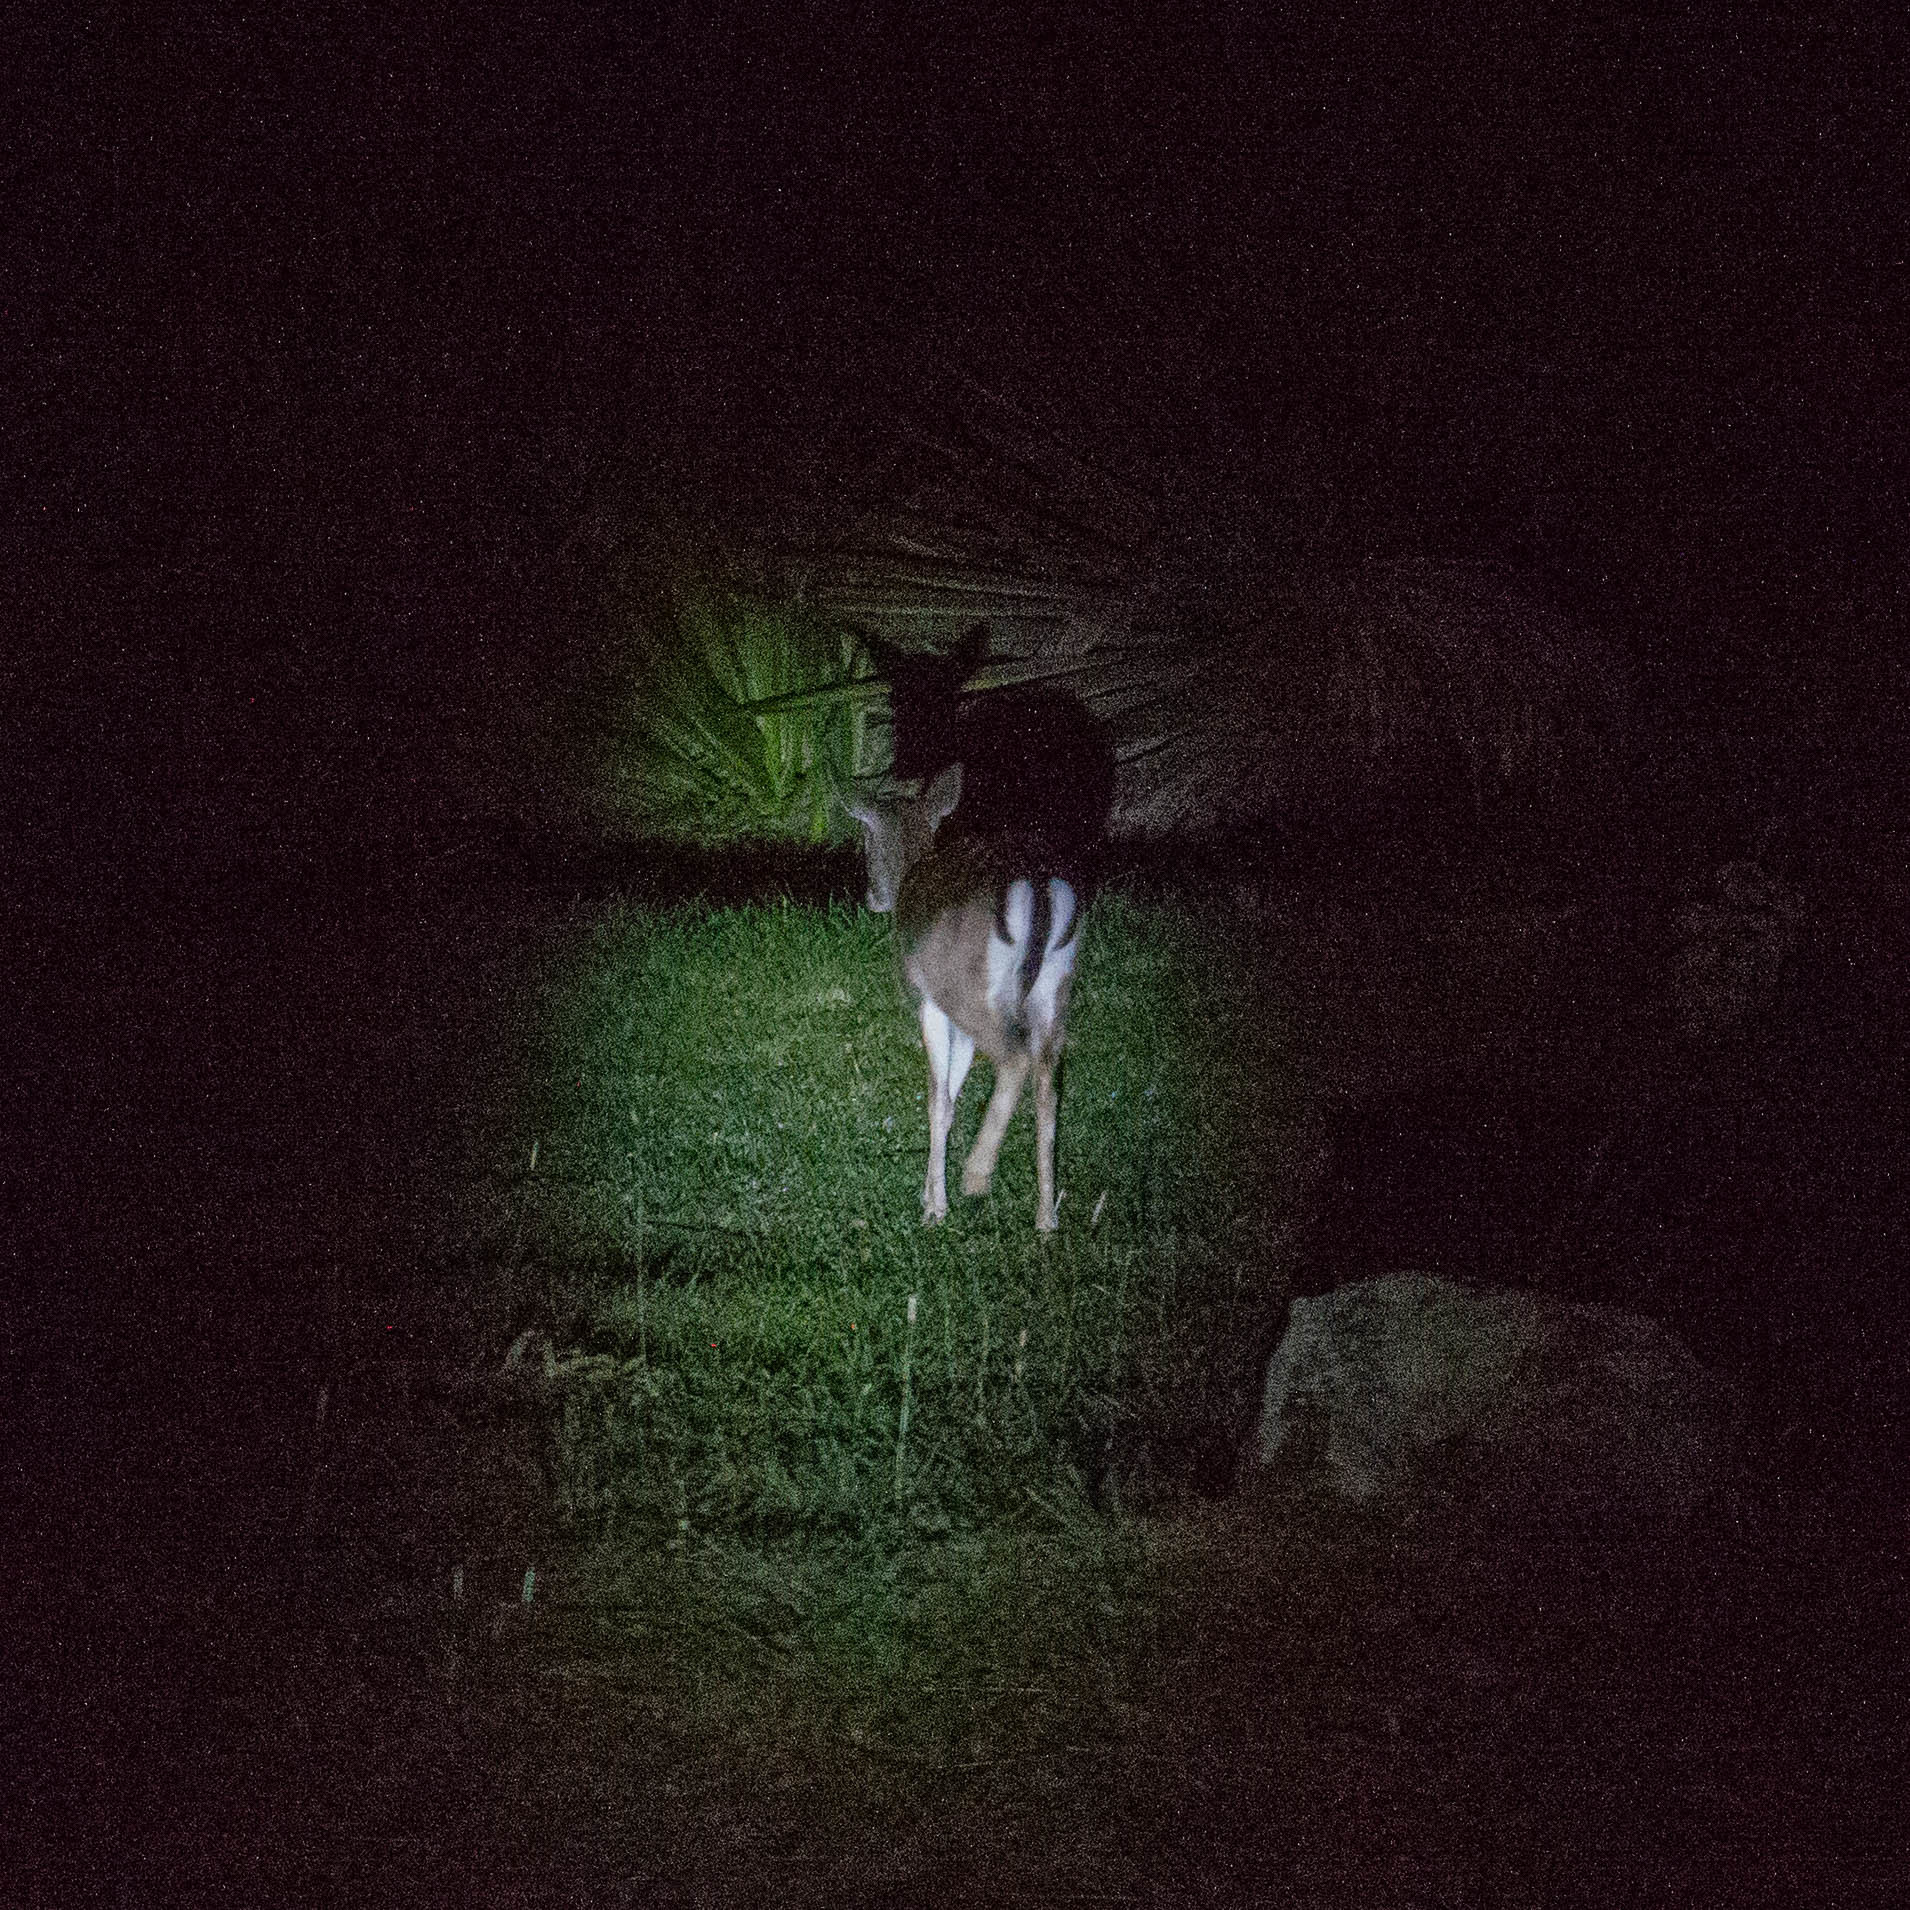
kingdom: Animalia
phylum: Chordata
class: Mammalia
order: Artiodactyla
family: Cervidae
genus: Dama
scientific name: Dama dama
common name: Fallow deer
